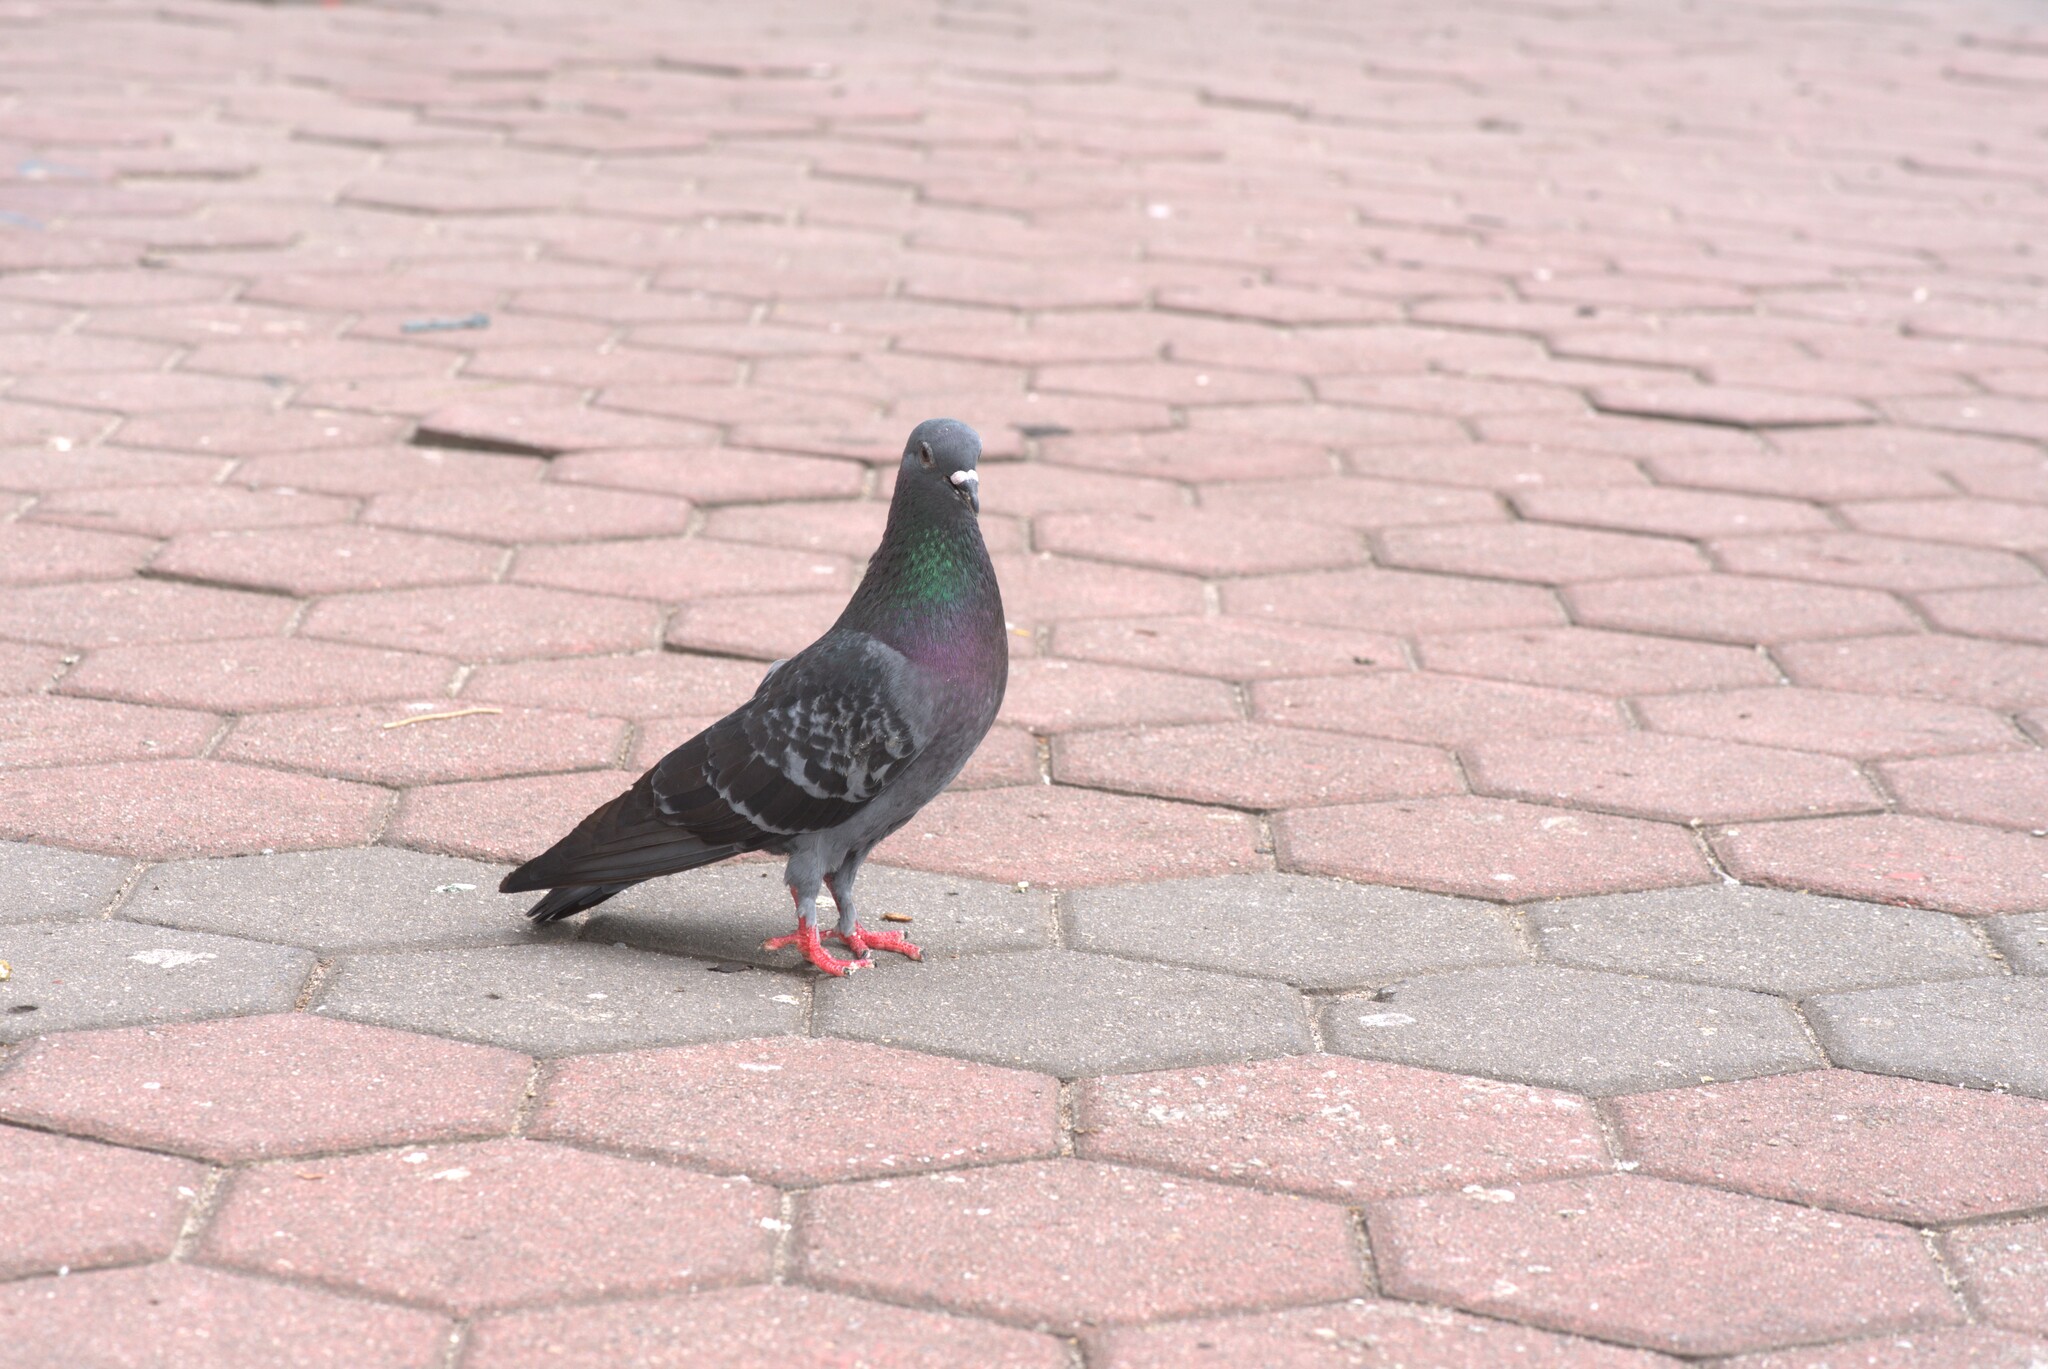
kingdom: Animalia
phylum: Chordata
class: Aves
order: Columbiformes
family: Columbidae
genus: Columba
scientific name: Columba livia
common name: Rock pigeon
